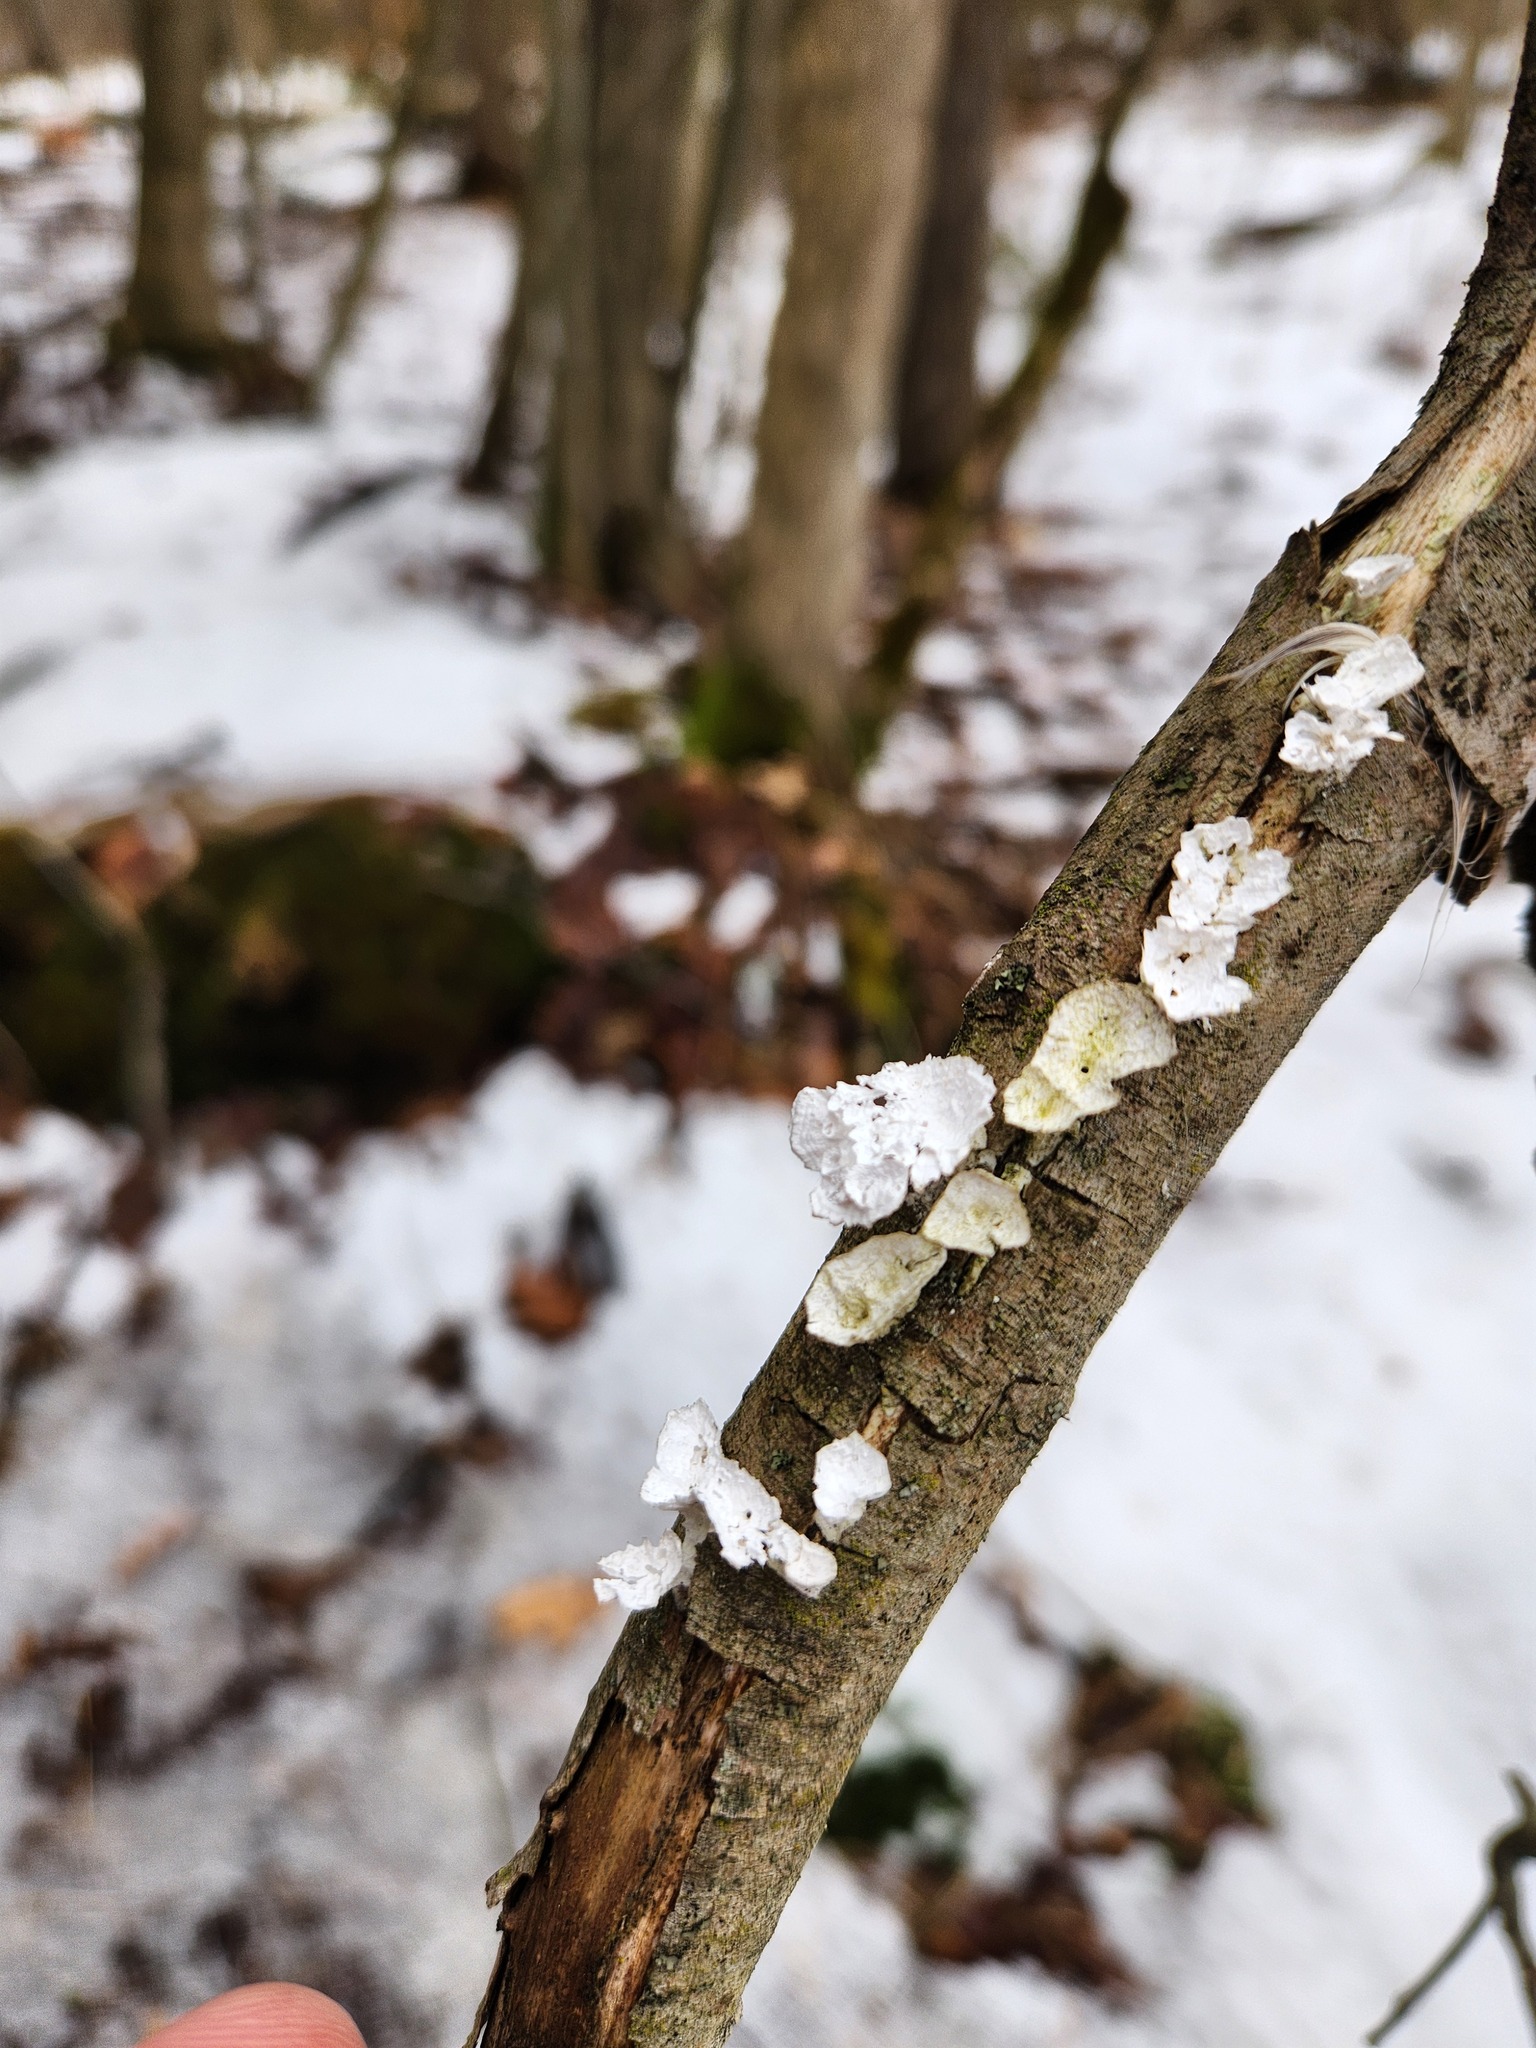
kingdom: Fungi
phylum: Basidiomycota
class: Agaricomycetes
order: Polyporales
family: Polyporaceae
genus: Poronidulus
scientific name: Poronidulus conchifer
